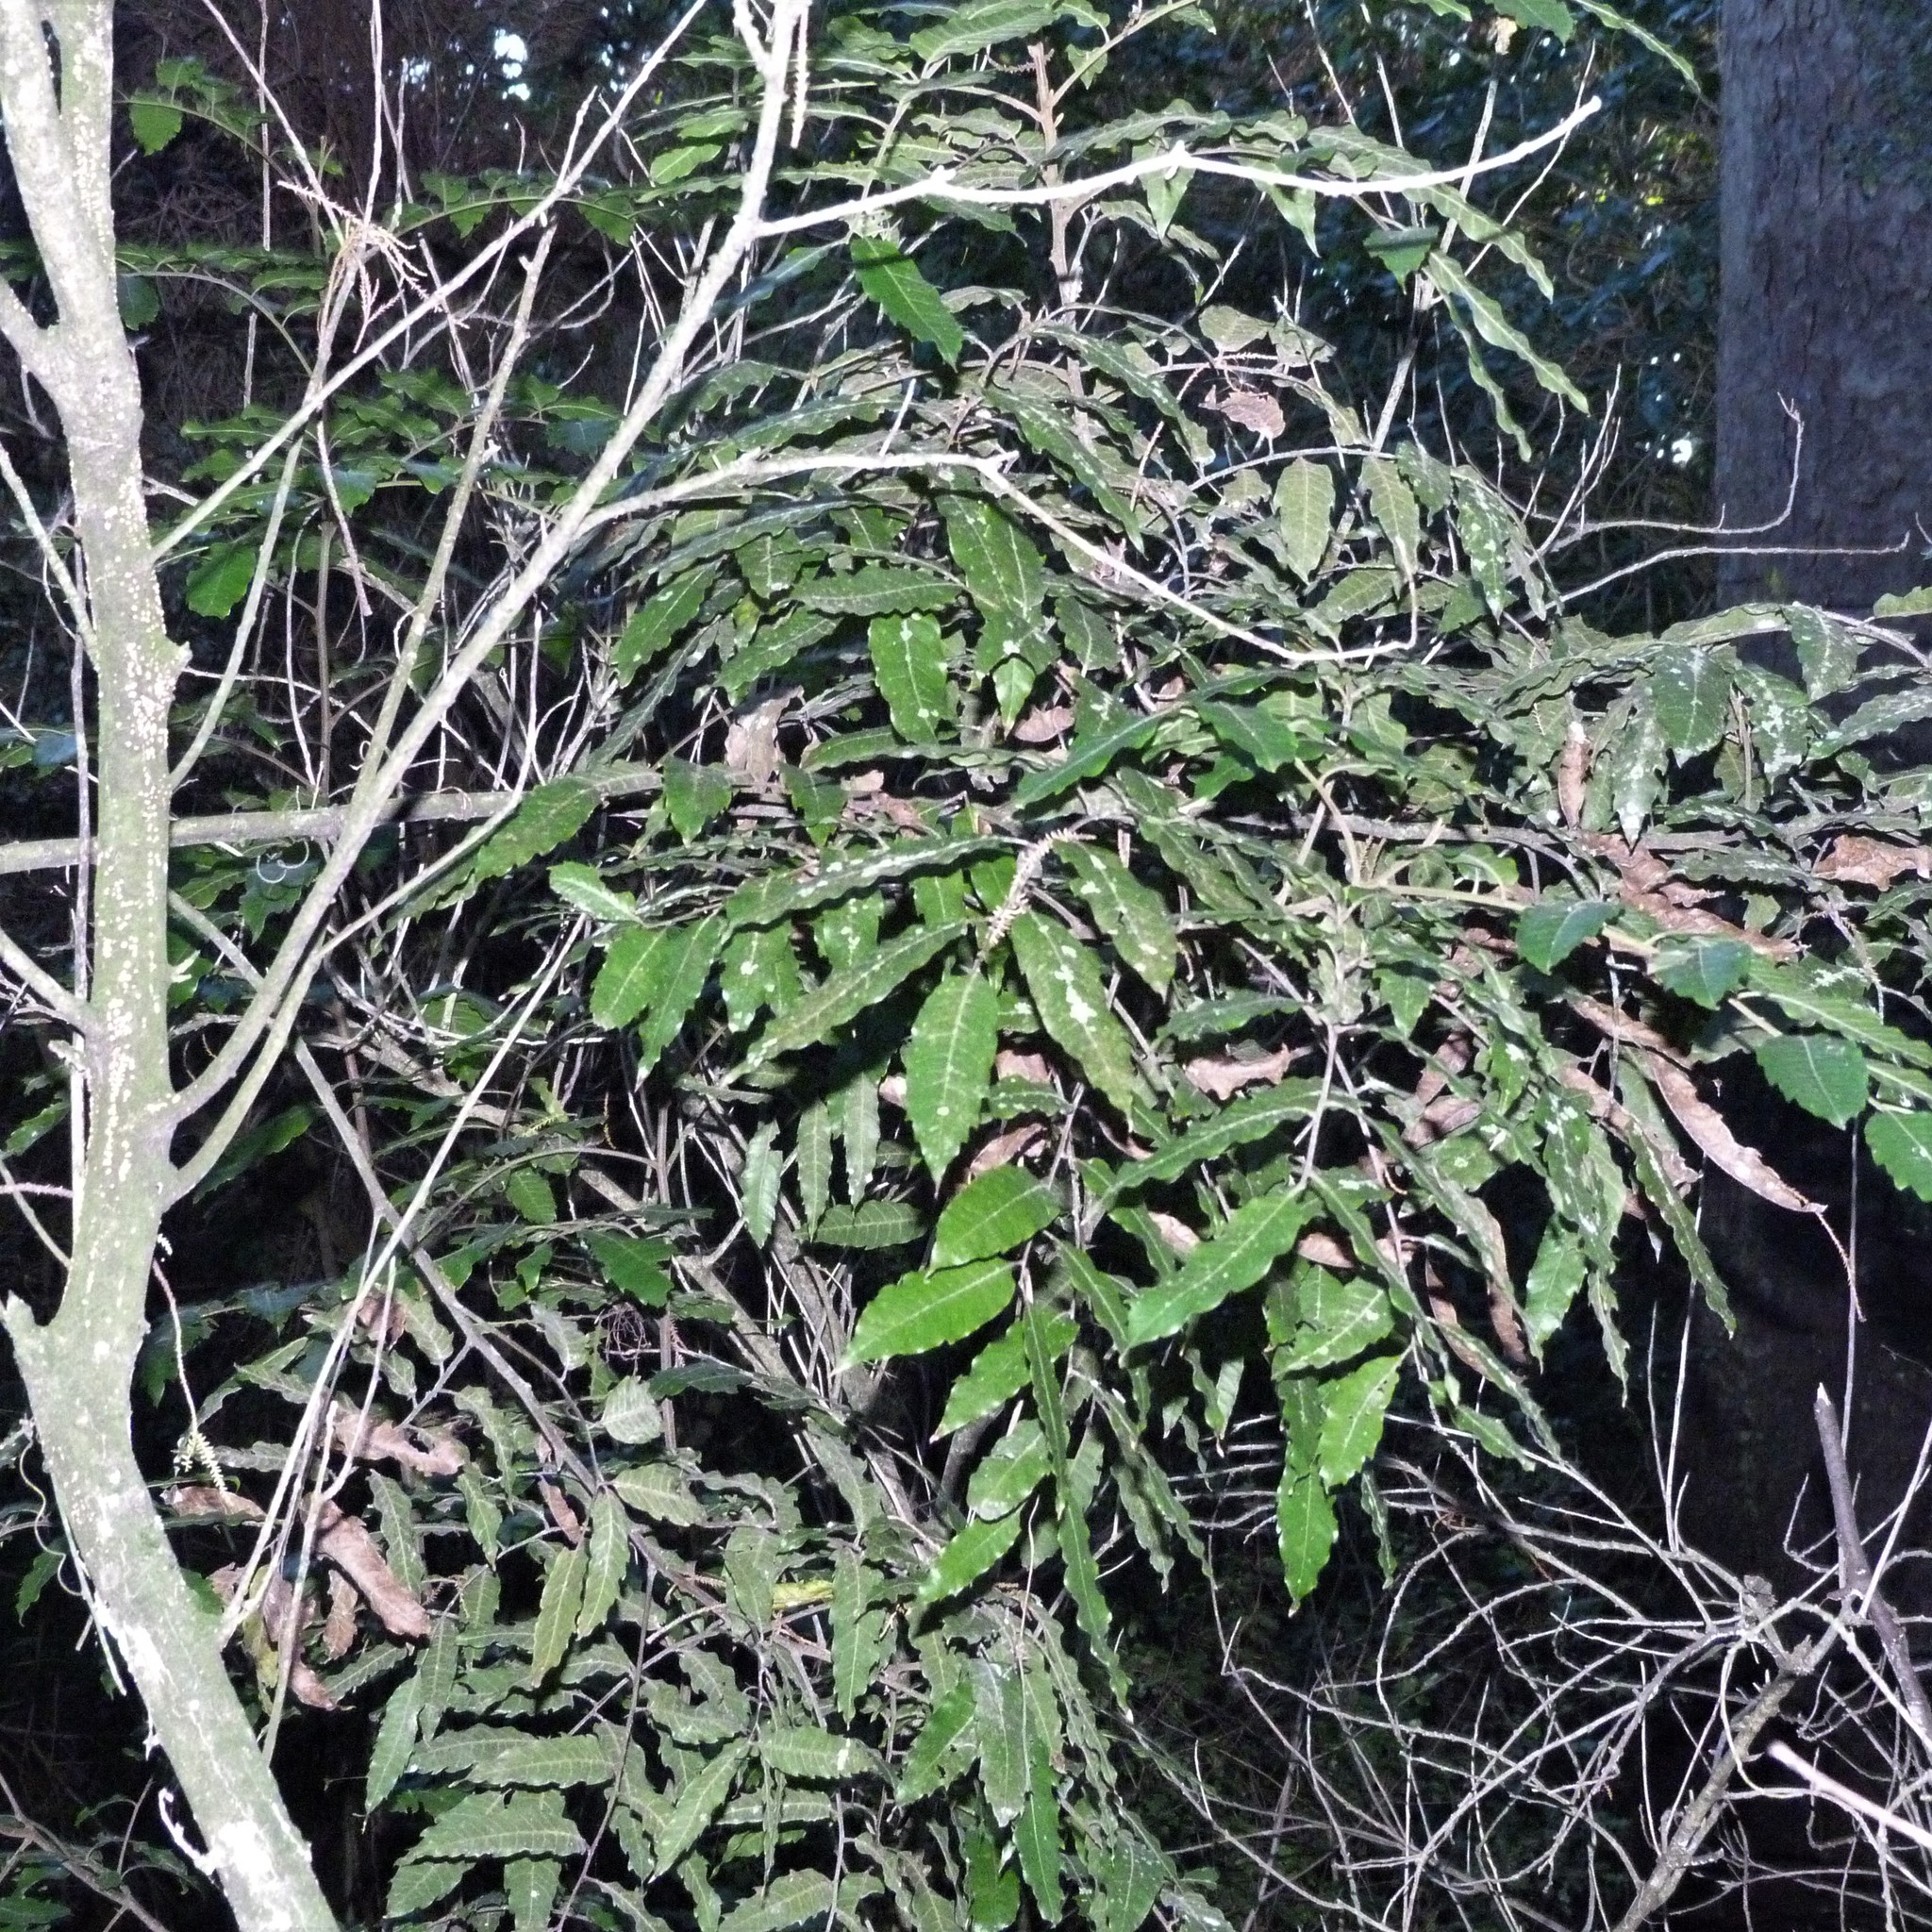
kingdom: Plantae
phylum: Tracheophyta
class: Magnoliopsida
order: Sapindales
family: Sapindaceae
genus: Alectryon
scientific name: Alectryon excelsus
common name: Three kings titoki
